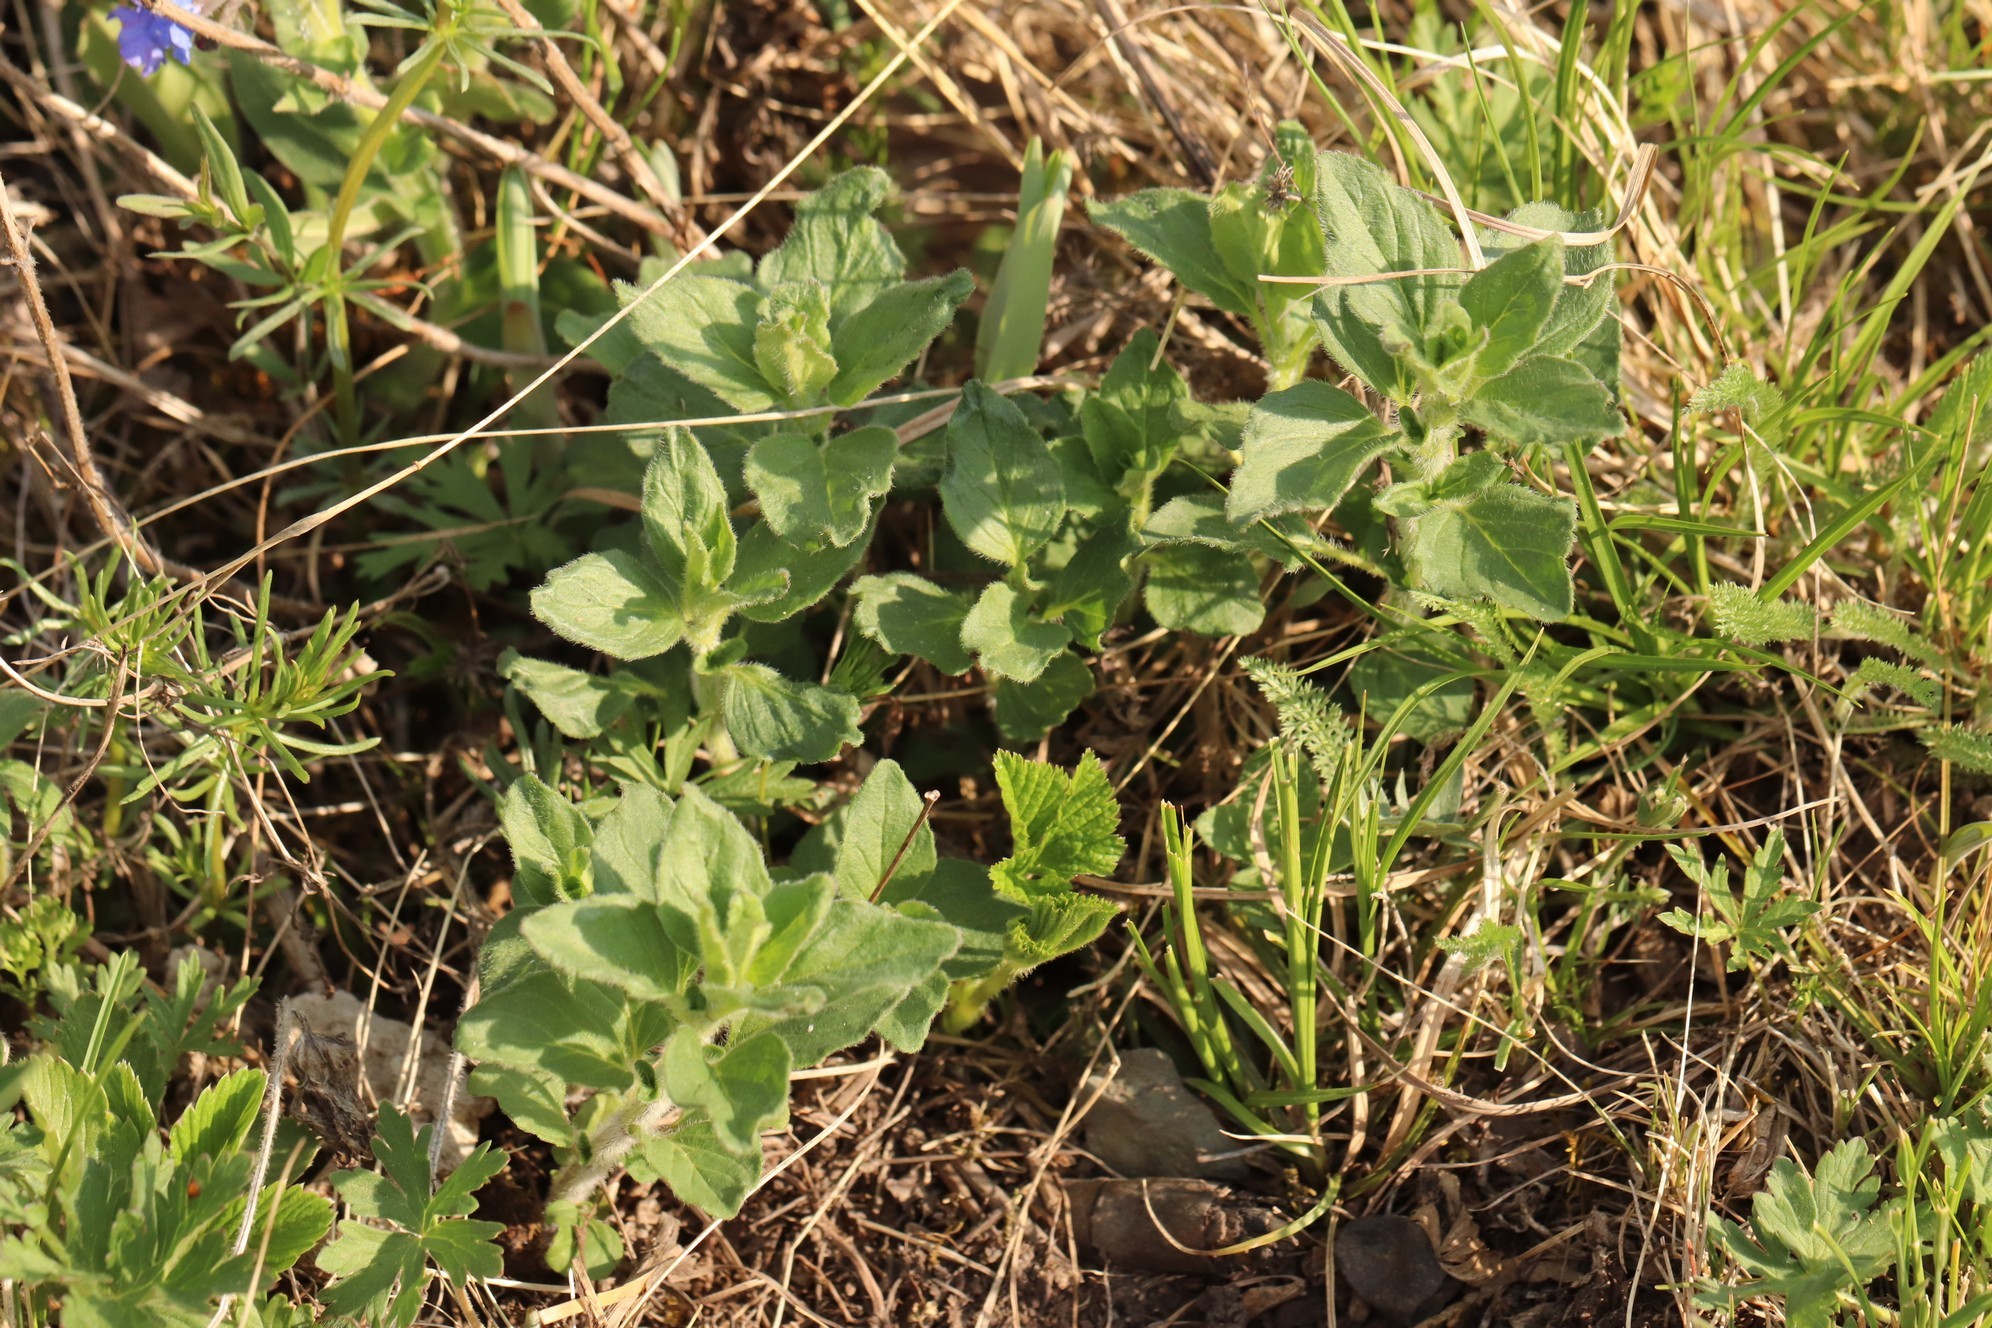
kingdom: Plantae
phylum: Tracheophyta
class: Magnoliopsida
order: Lamiales
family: Lamiaceae
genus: Origanum
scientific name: Origanum vulgare
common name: Wild marjoram
